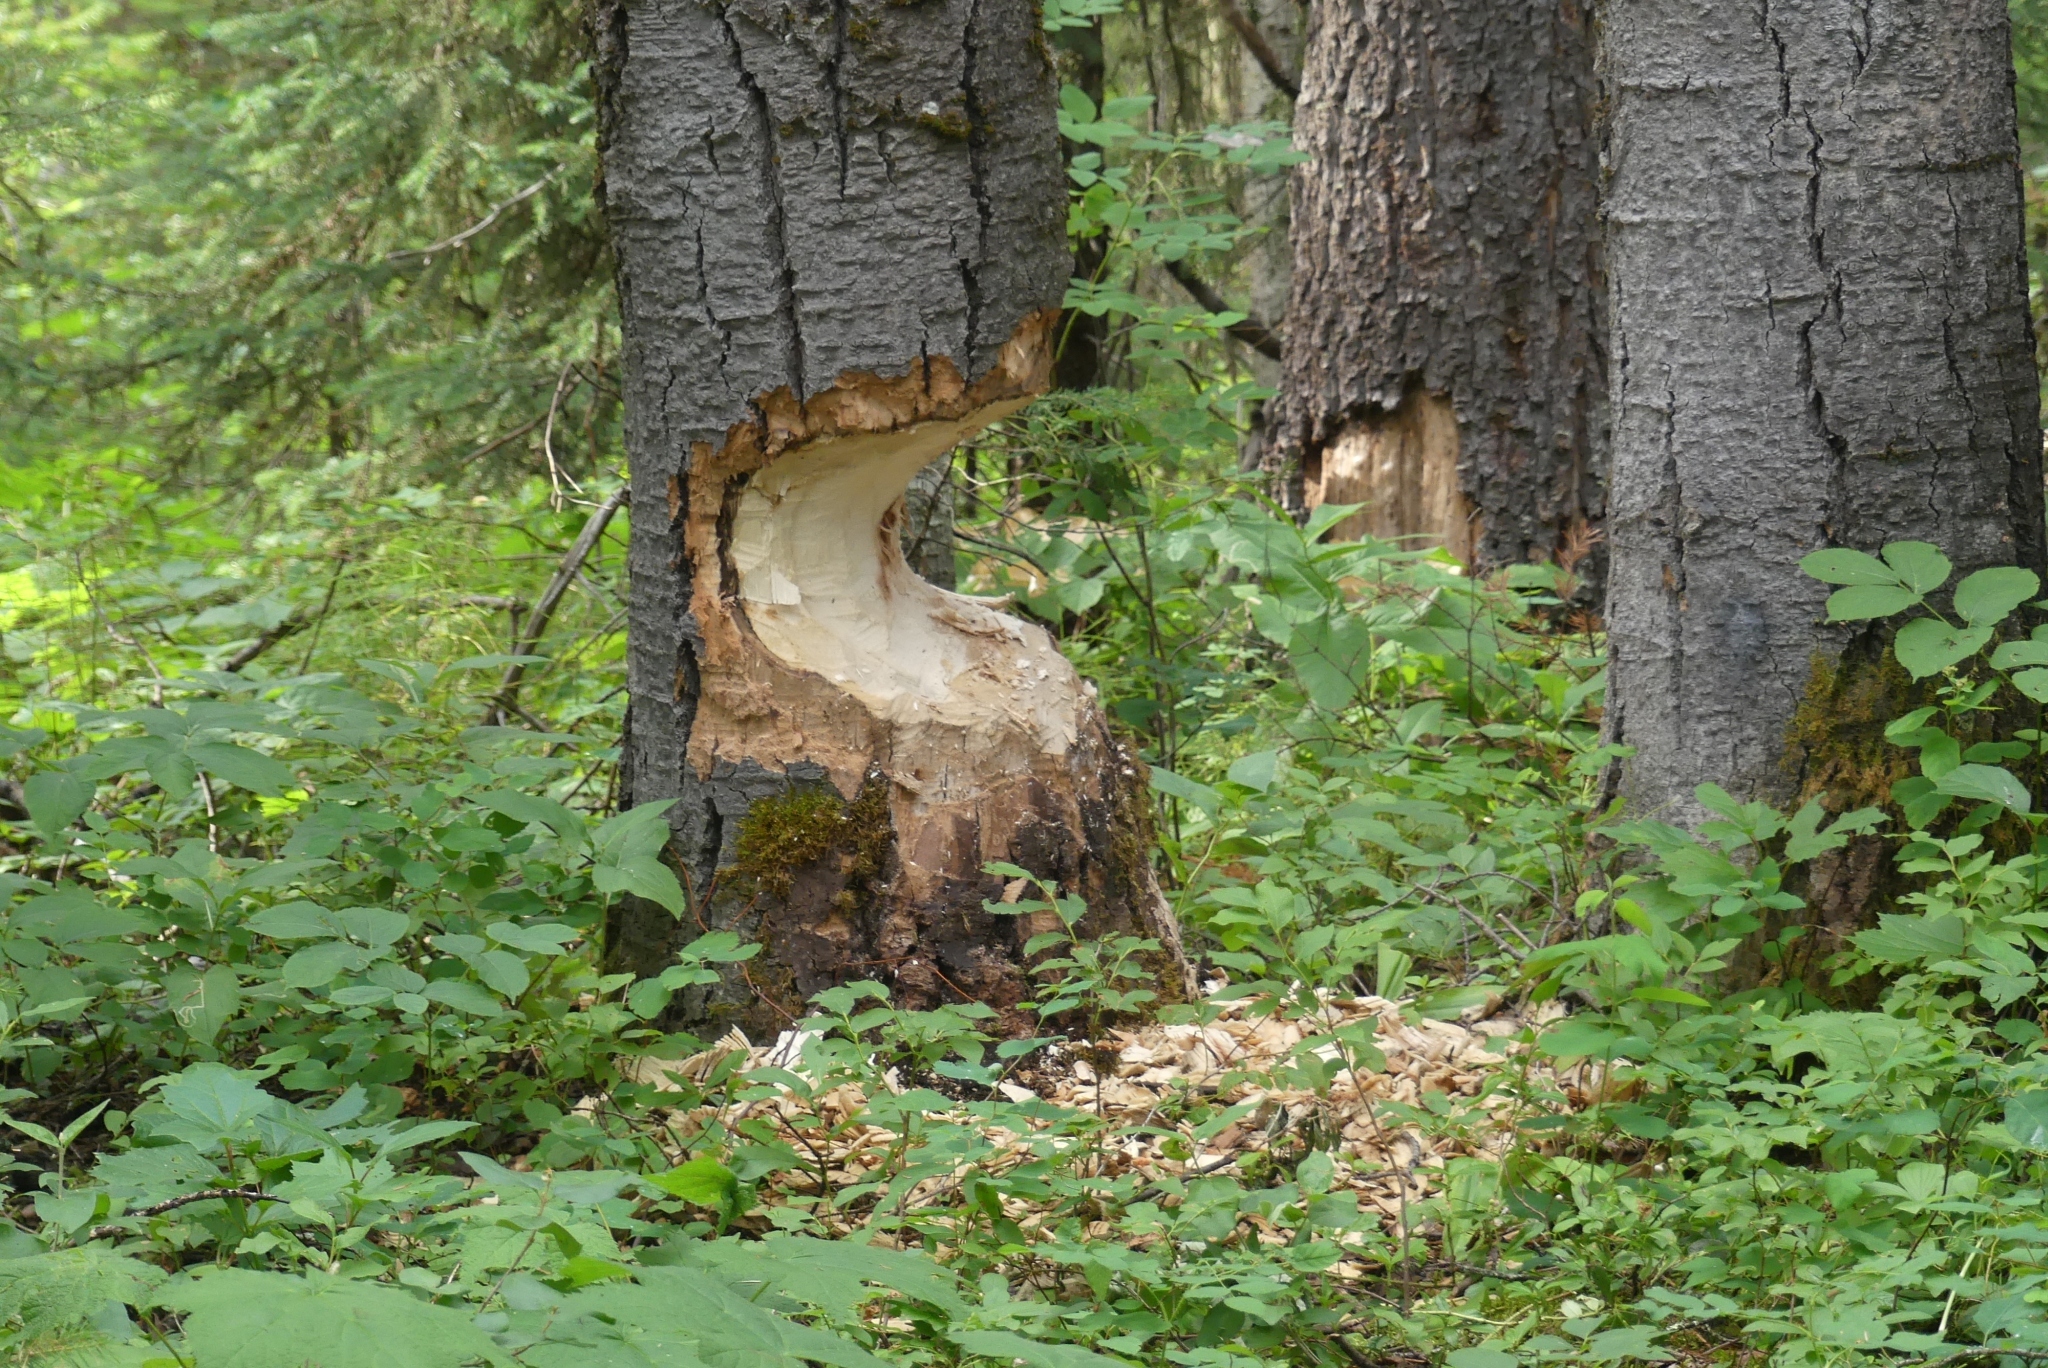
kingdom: Animalia
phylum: Chordata
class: Mammalia
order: Rodentia
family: Castoridae
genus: Castor
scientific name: Castor canadensis
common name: American beaver
